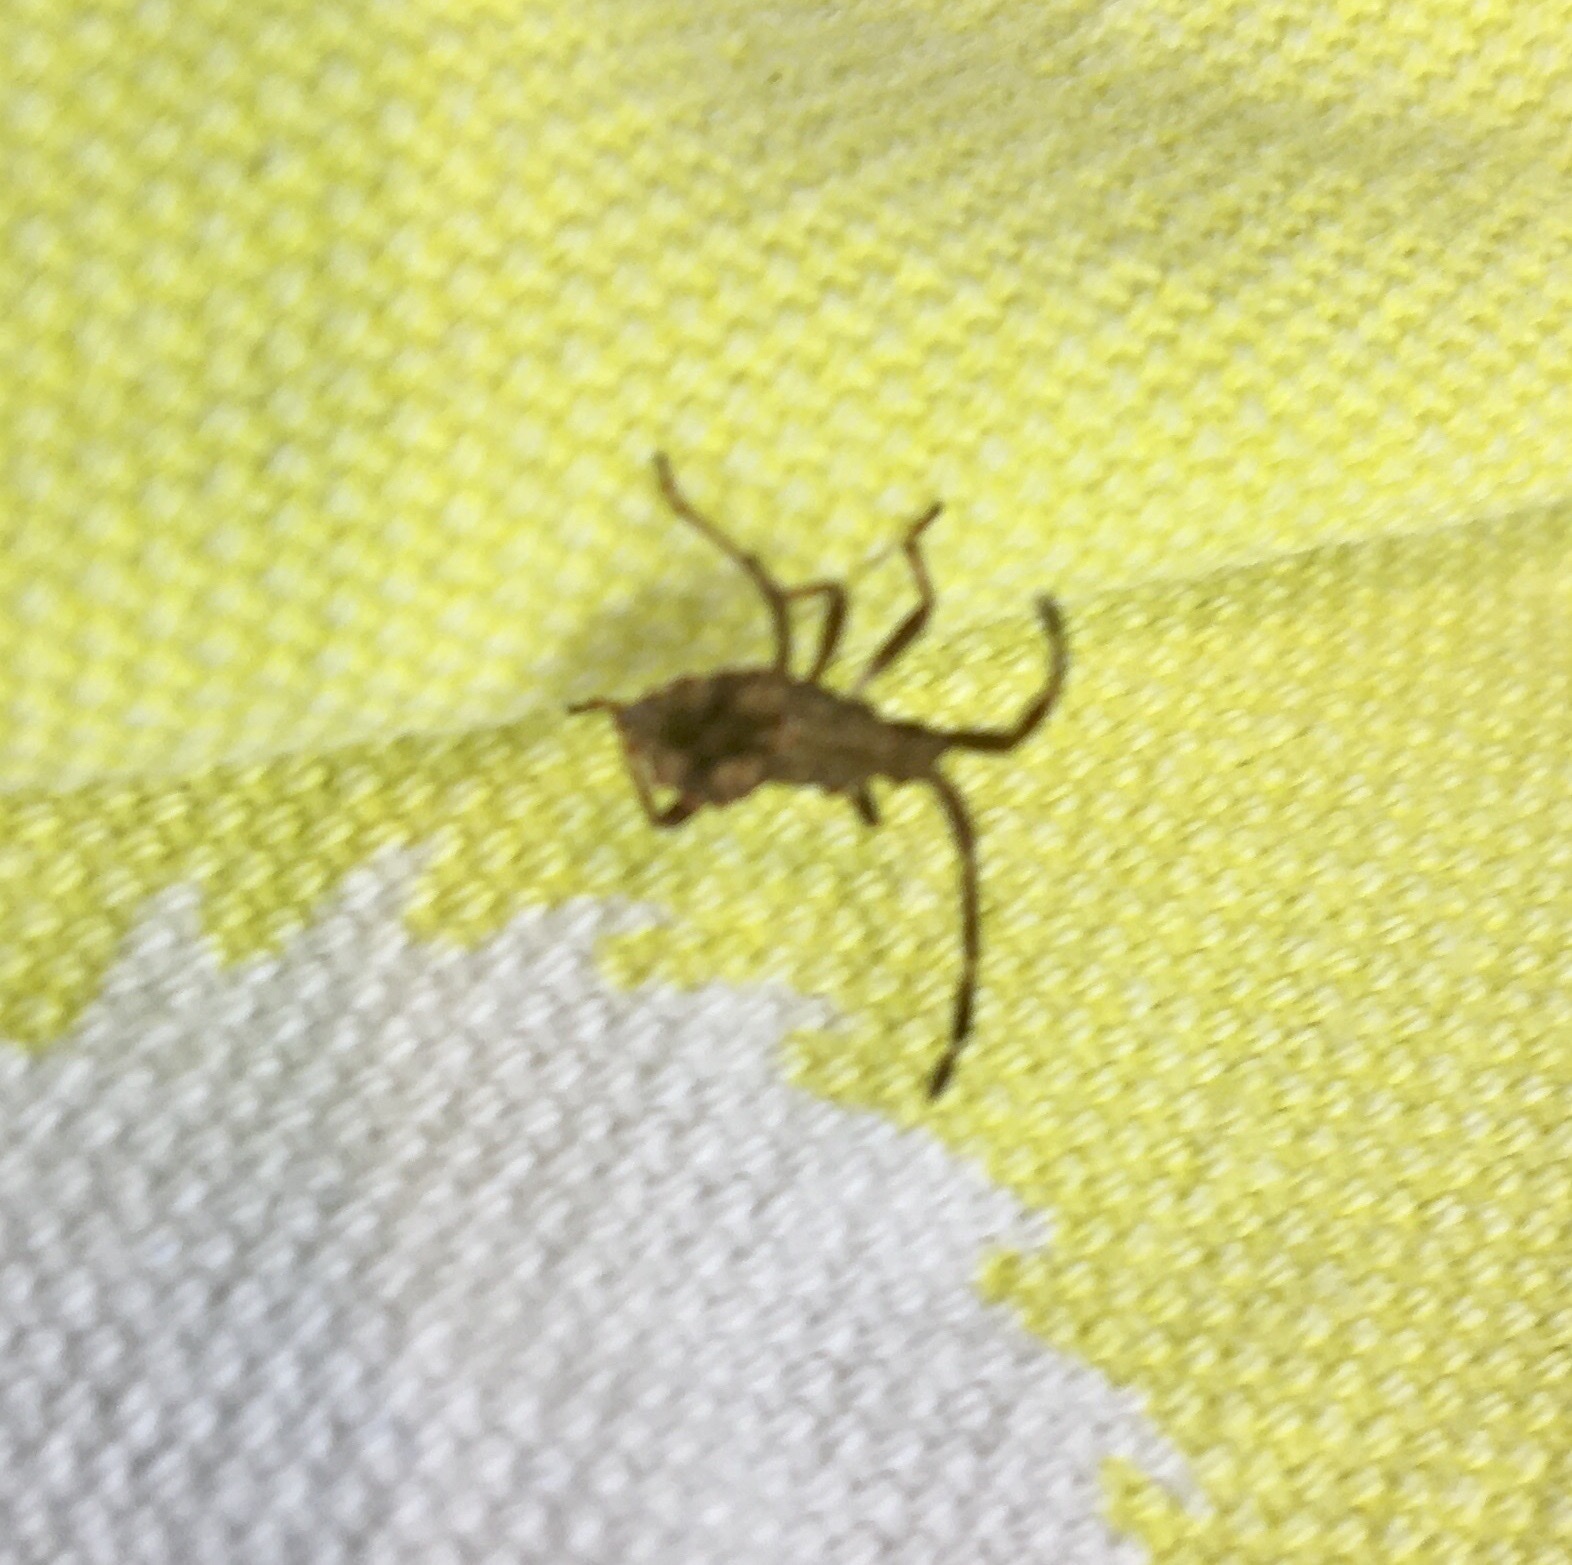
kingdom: Animalia
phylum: Arthropoda
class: Insecta
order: Hemiptera
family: Coreidae
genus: Coreus
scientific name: Coreus marginatus
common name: Dock bug
